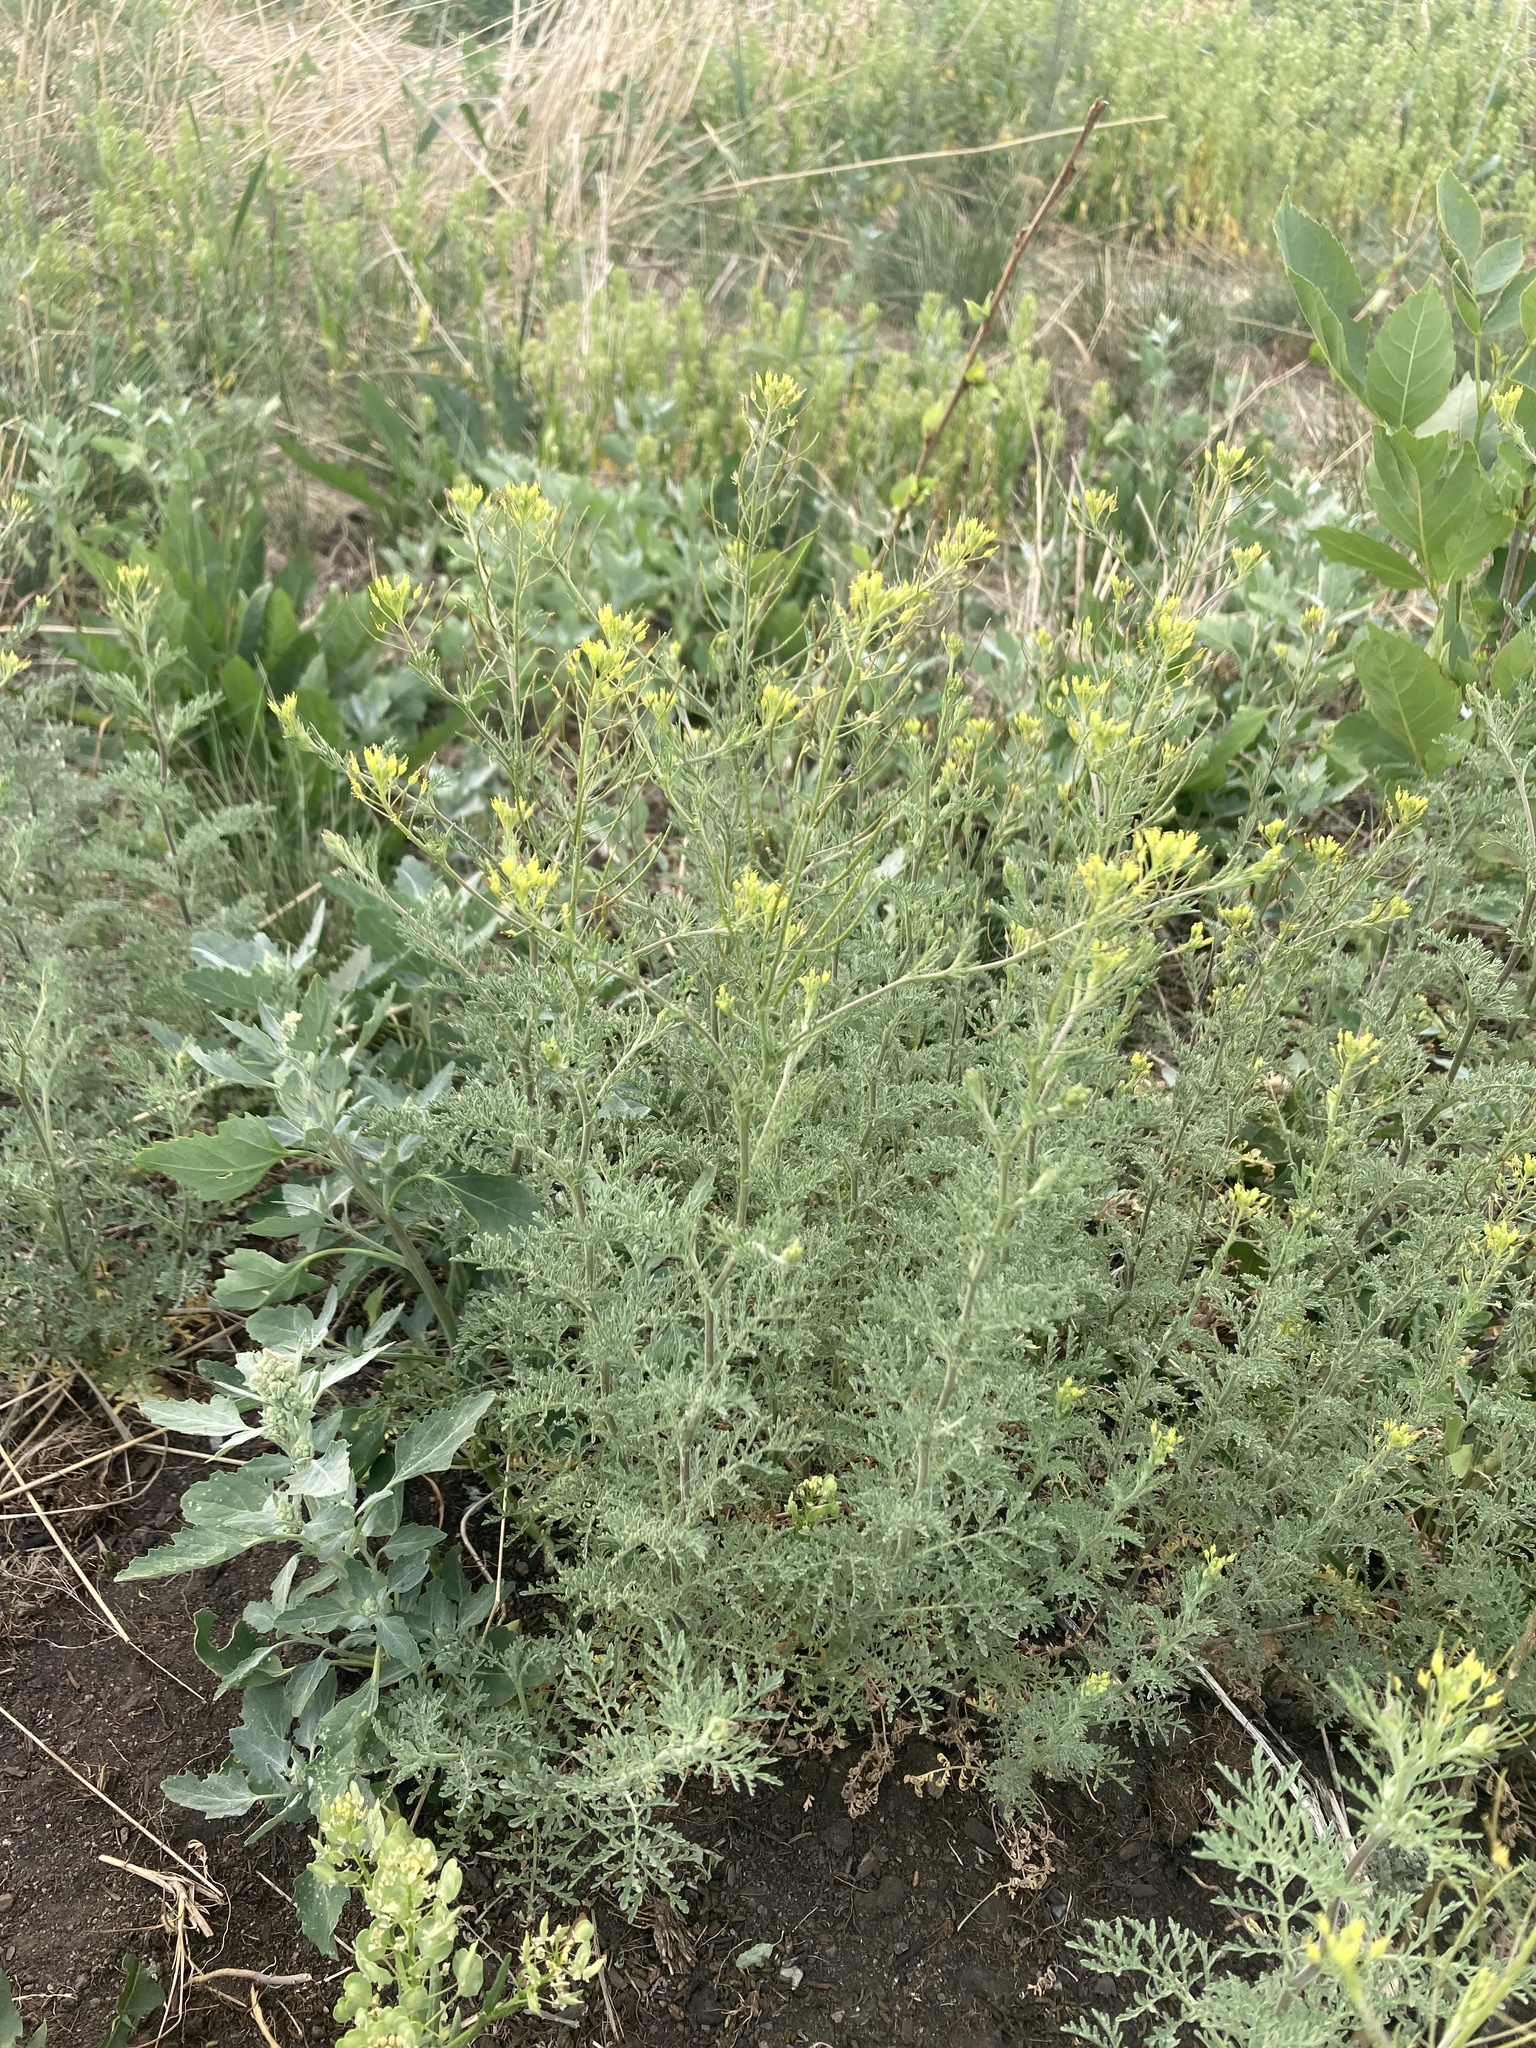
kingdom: Plantae
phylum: Tracheophyta
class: Magnoliopsida
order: Brassicales
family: Brassicaceae
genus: Descurainia
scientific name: Descurainia sophia
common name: Flixweed
